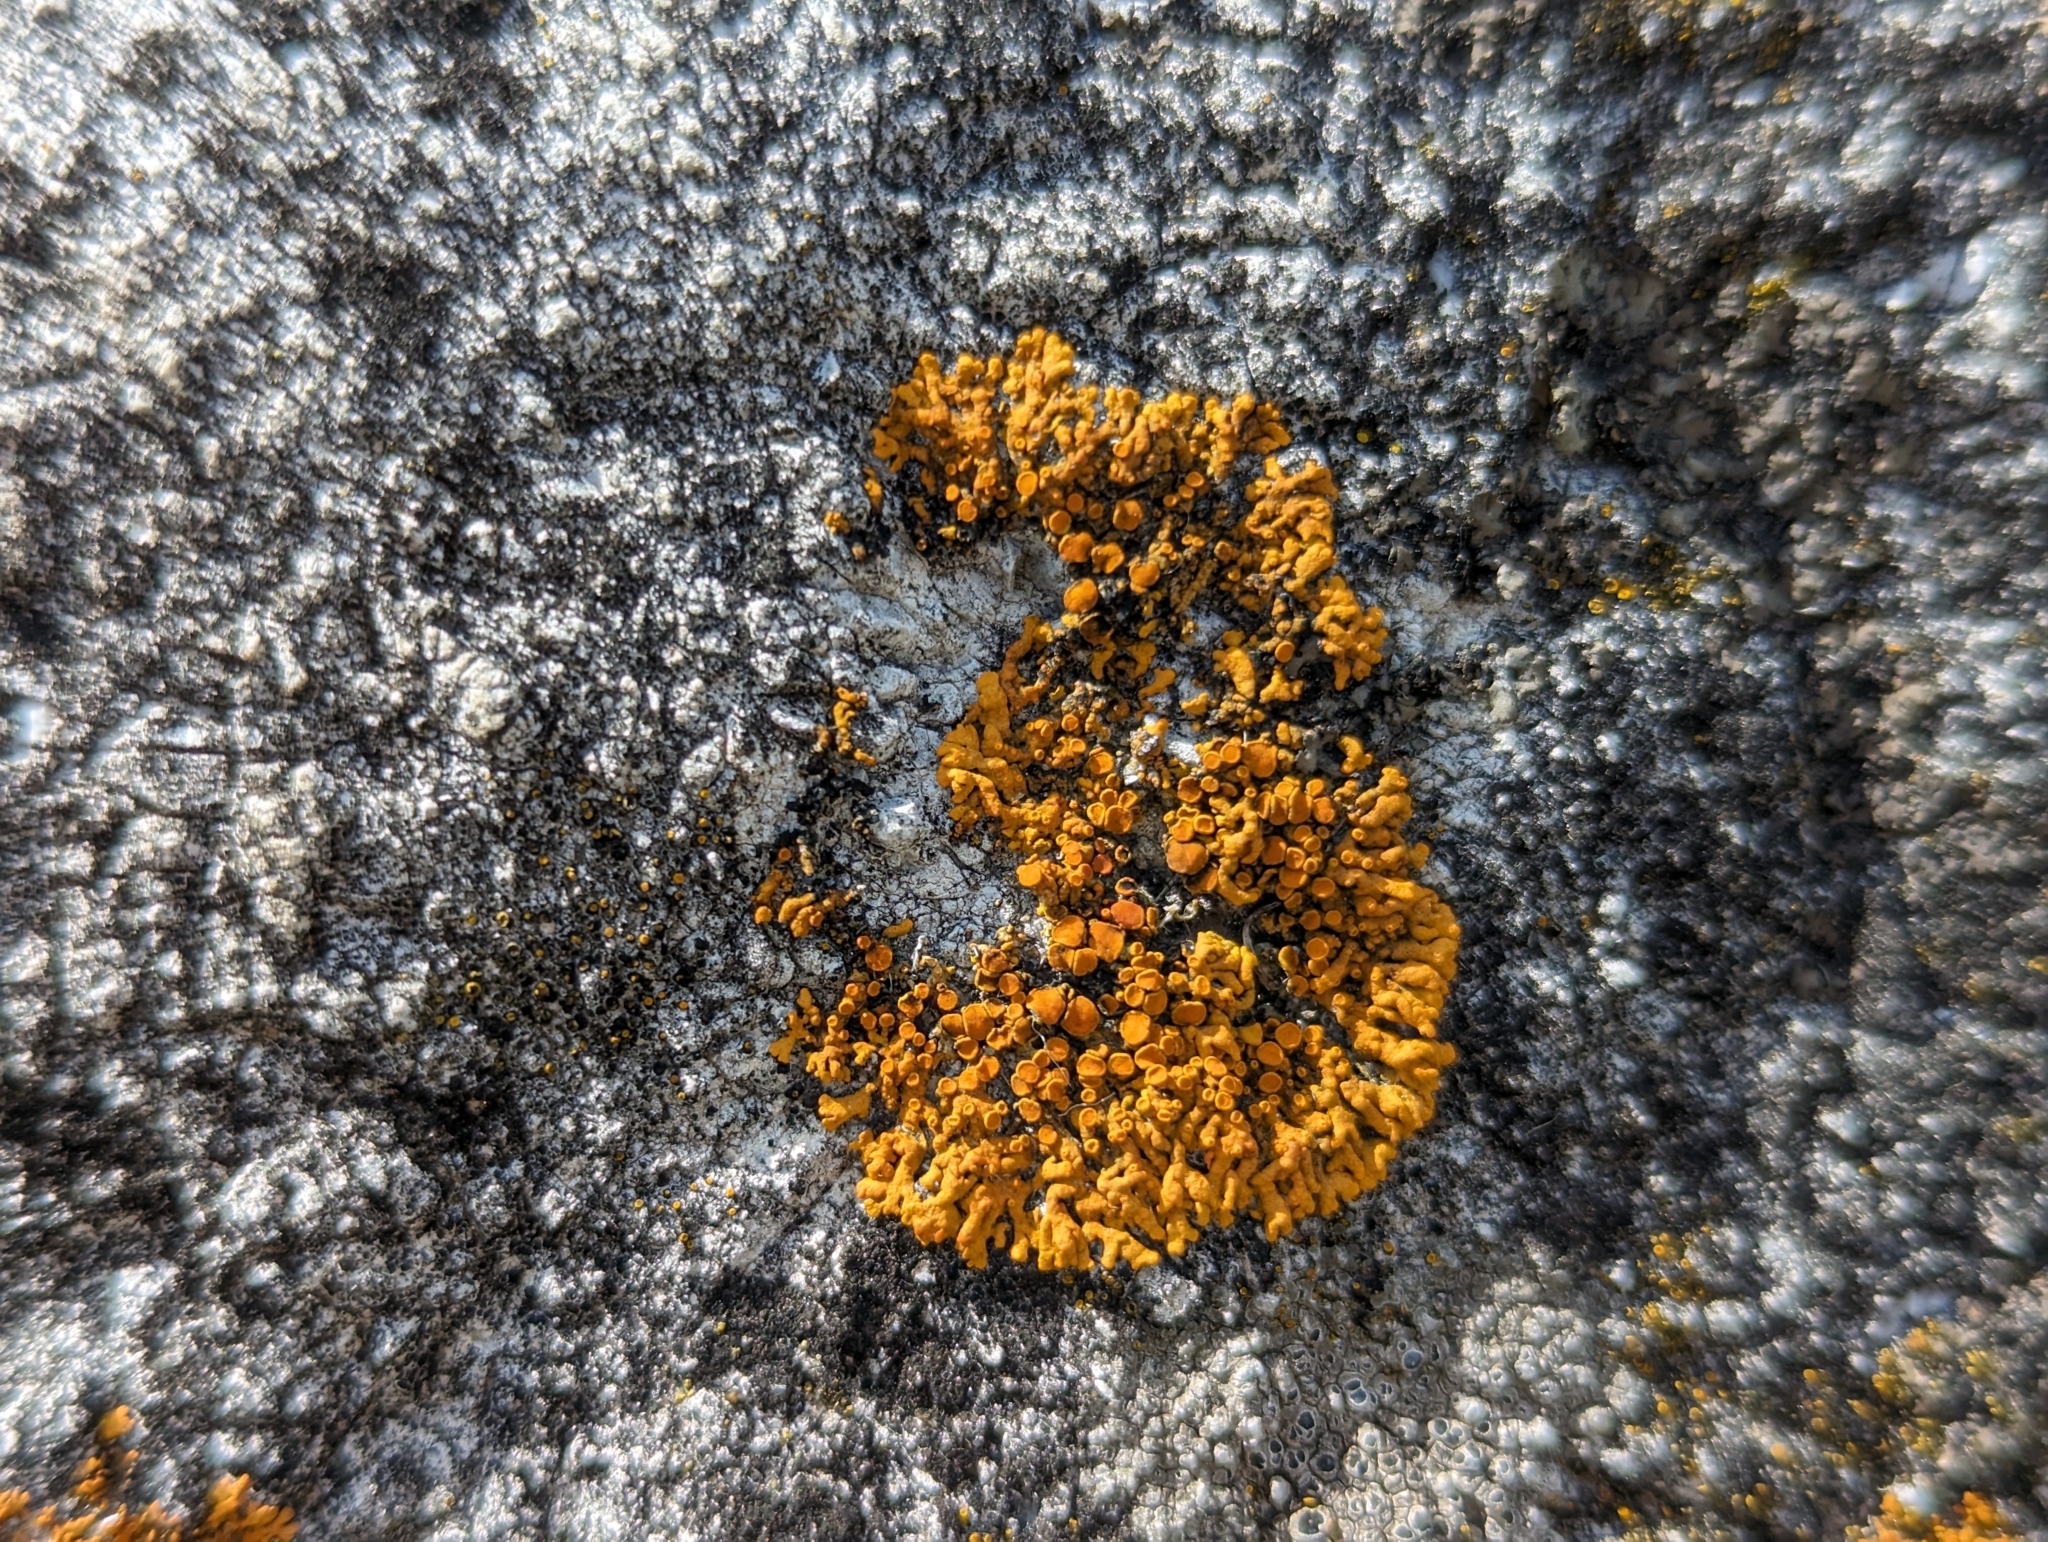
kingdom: Fungi
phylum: Ascomycota
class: Lecanoromycetes
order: Teloschistales
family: Teloschistaceae
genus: Xanthoria
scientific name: Xanthoria elegans
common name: Elegant sunburst lichen
